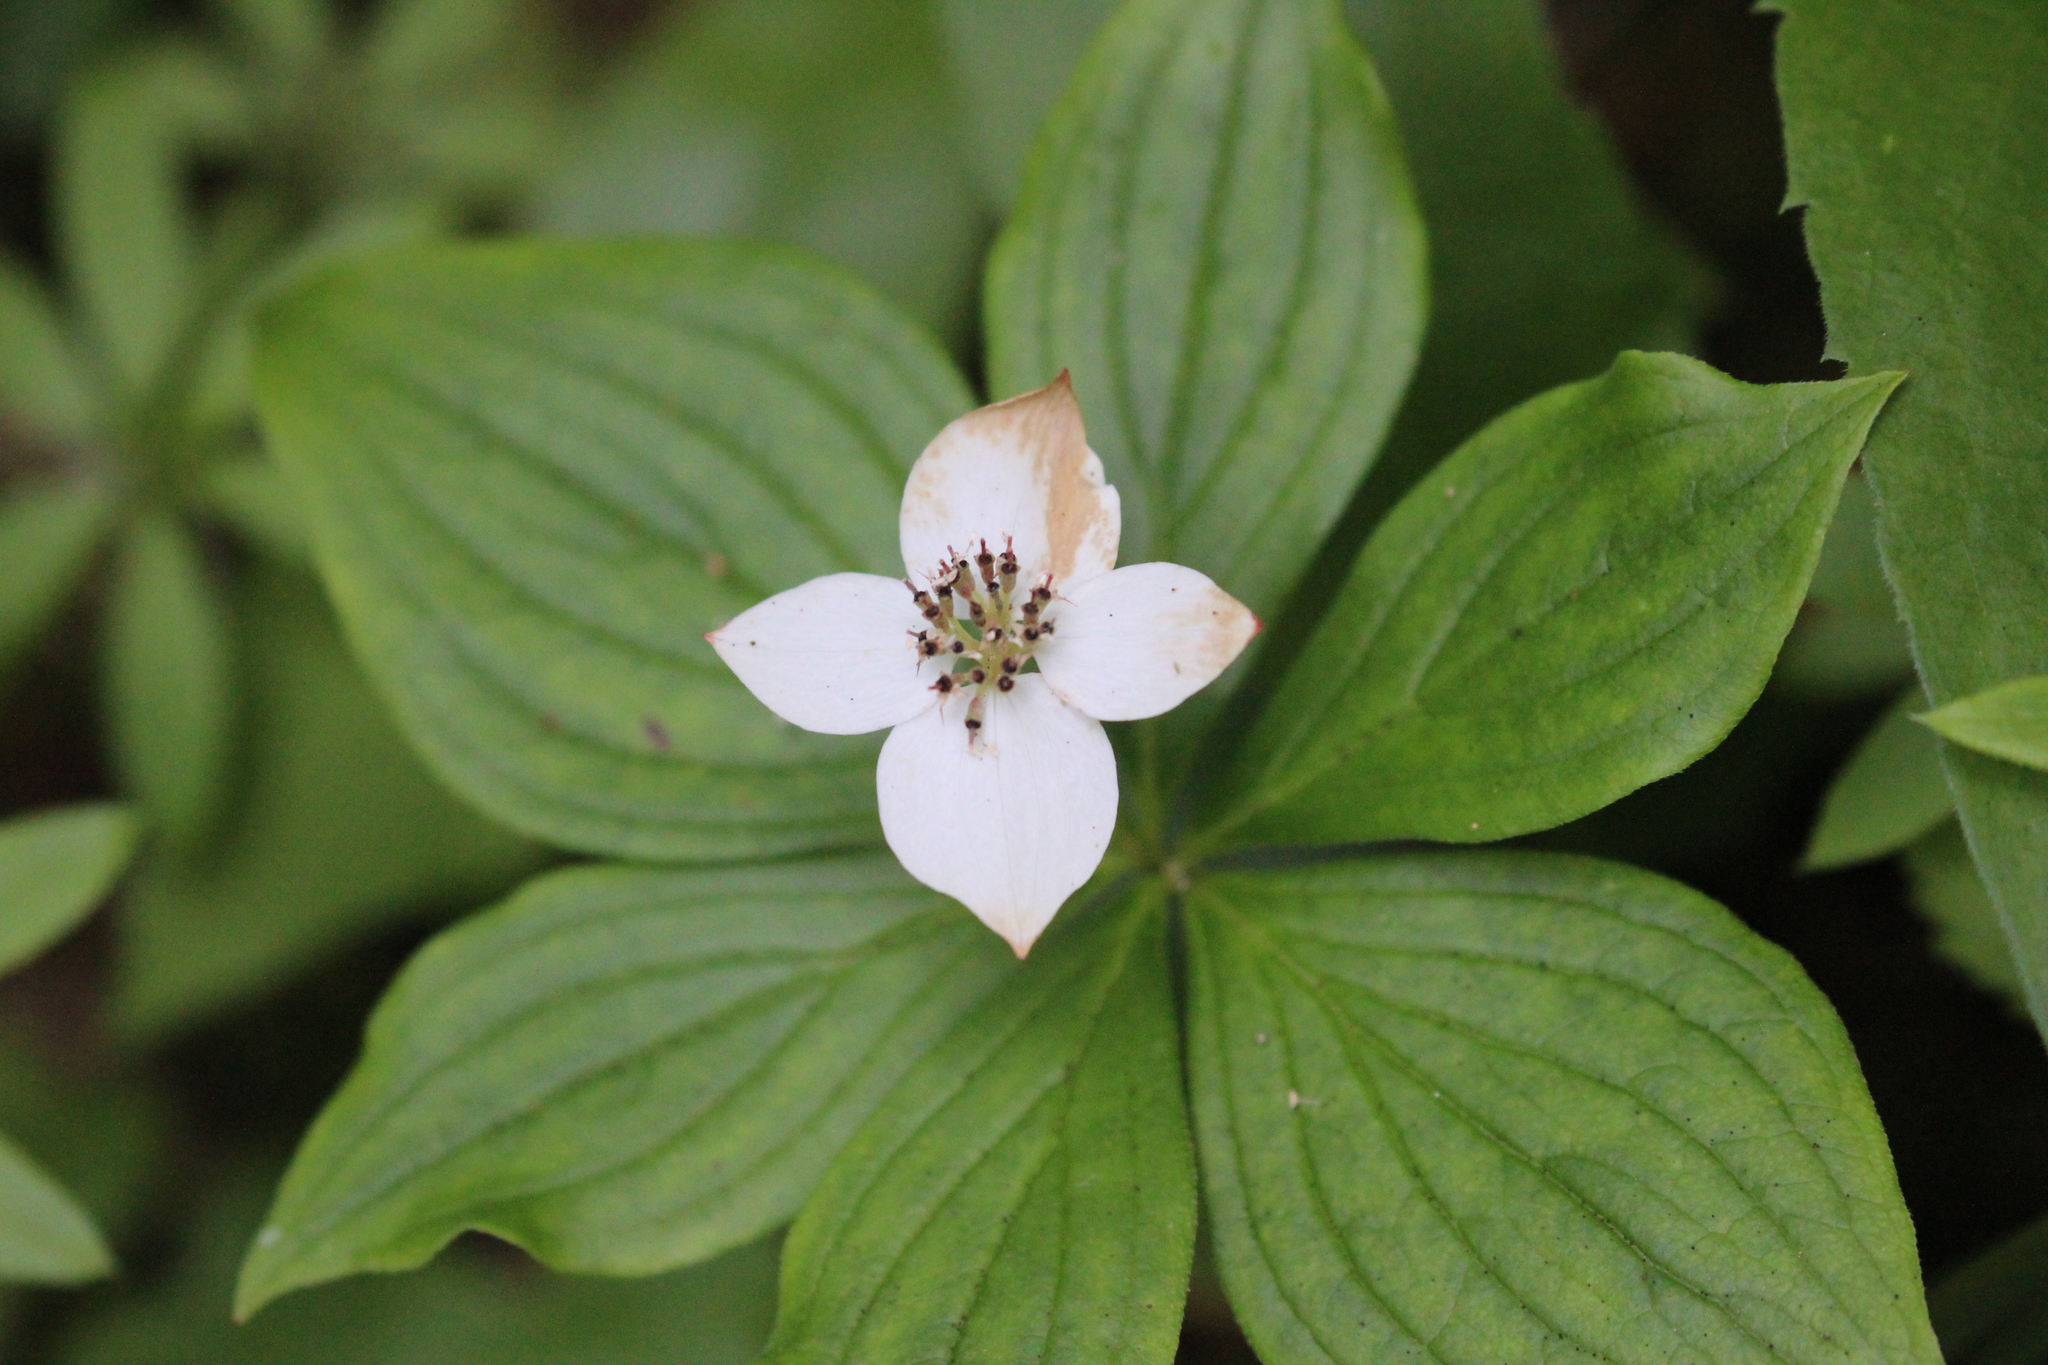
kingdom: Plantae
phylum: Tracheophyta
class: Magnoliopsida
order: Cornales
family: Cornaceae
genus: Cornus
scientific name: Cornus canadensis
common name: Creeping dogwood
